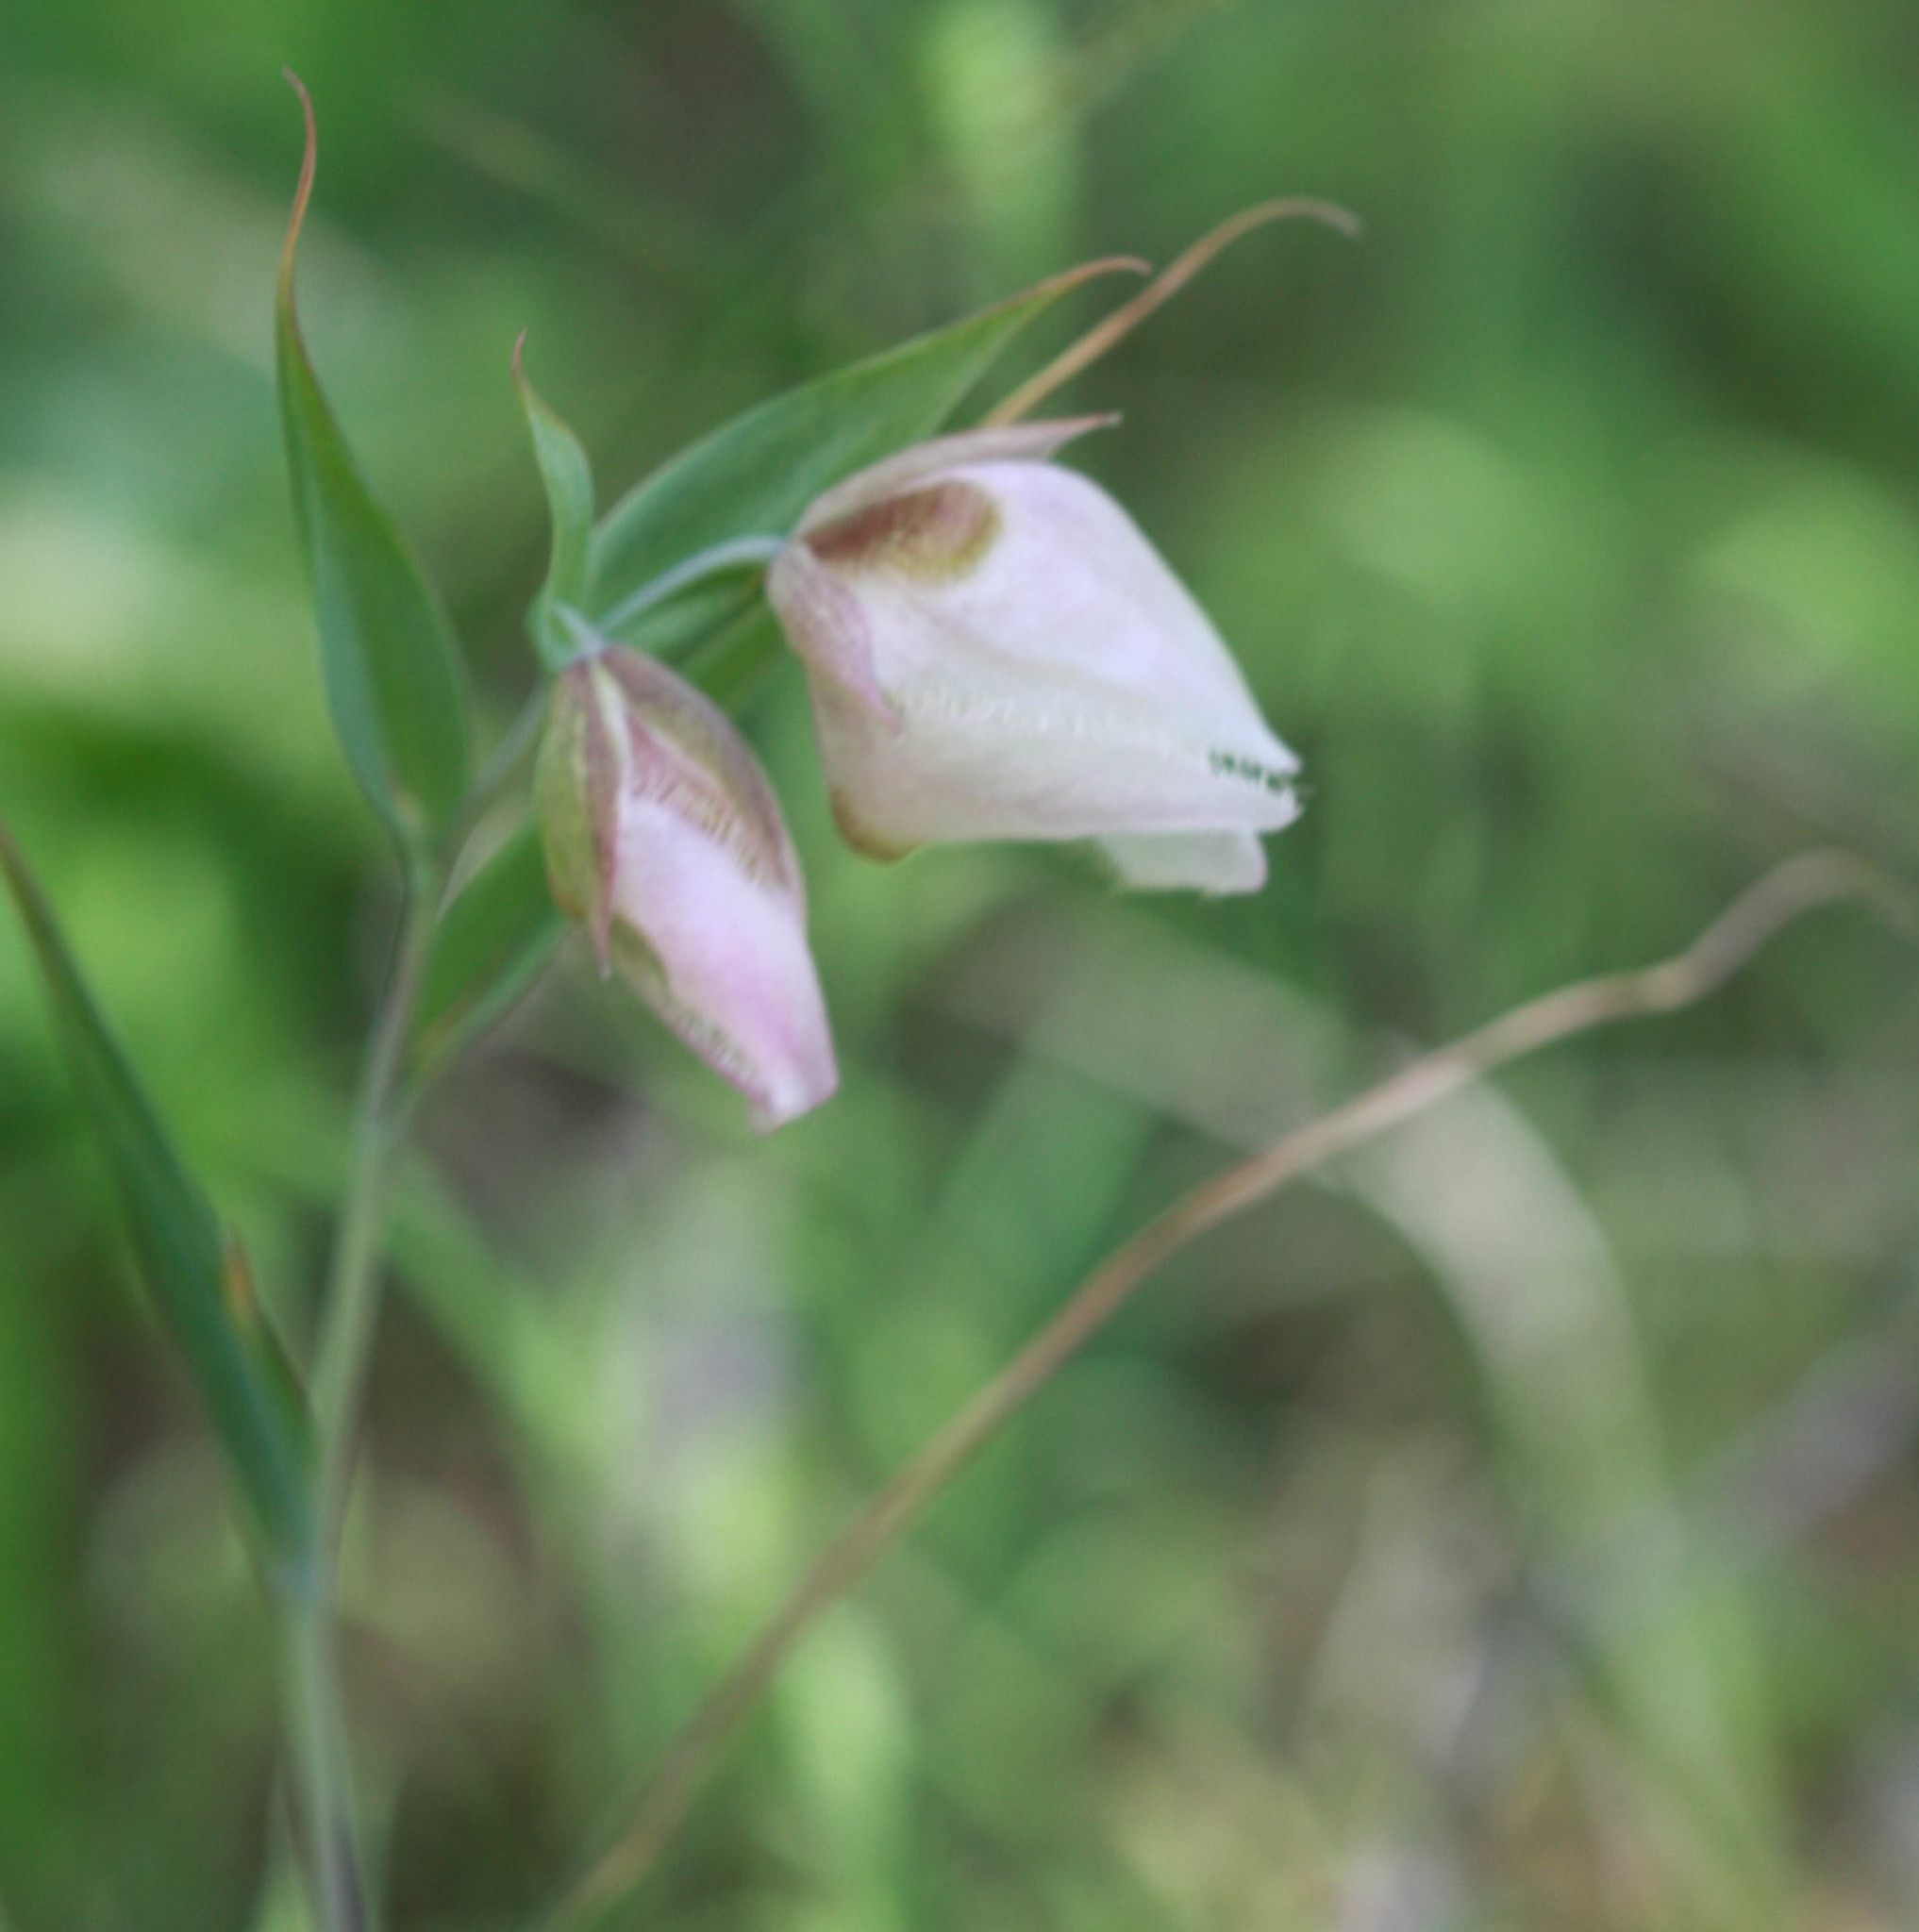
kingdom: Plantae
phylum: Tracheophyta
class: Liliopsida
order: Liliales
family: Liliaceae
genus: Calochortus
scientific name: Calochortus albus
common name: Fairy-lantern
